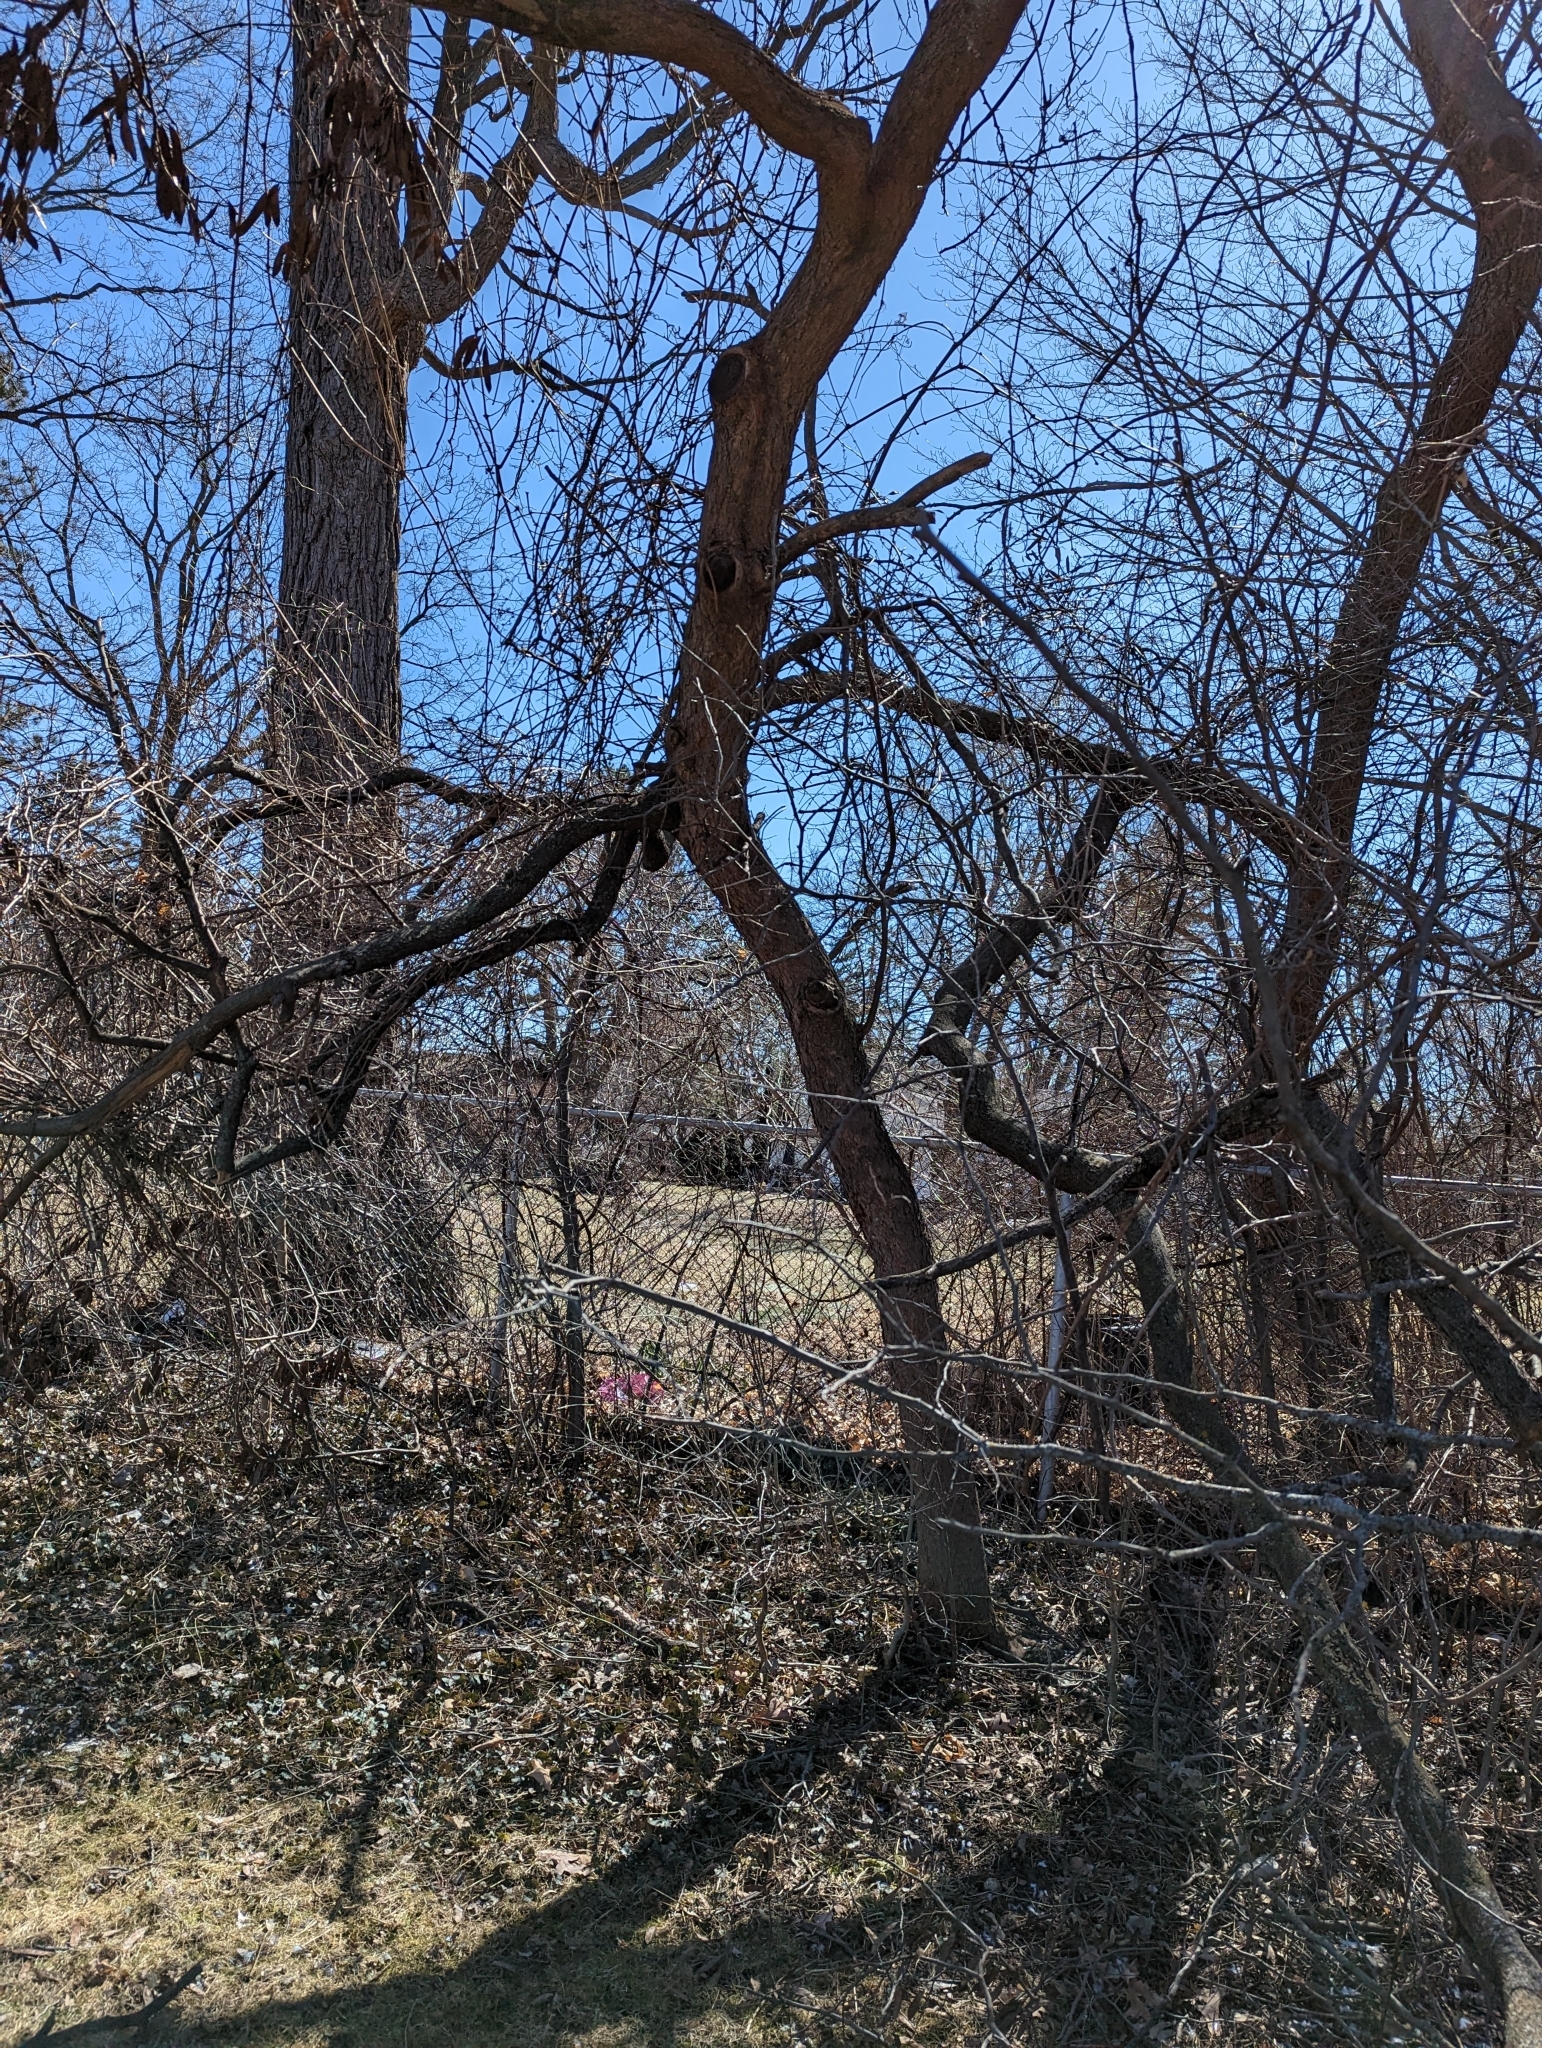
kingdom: Plantae
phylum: Tracheophyta
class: Magnoliopsida
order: Fabales
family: Fabaceae
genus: Cercis
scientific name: Cercis canadensis
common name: Eastern redbud
